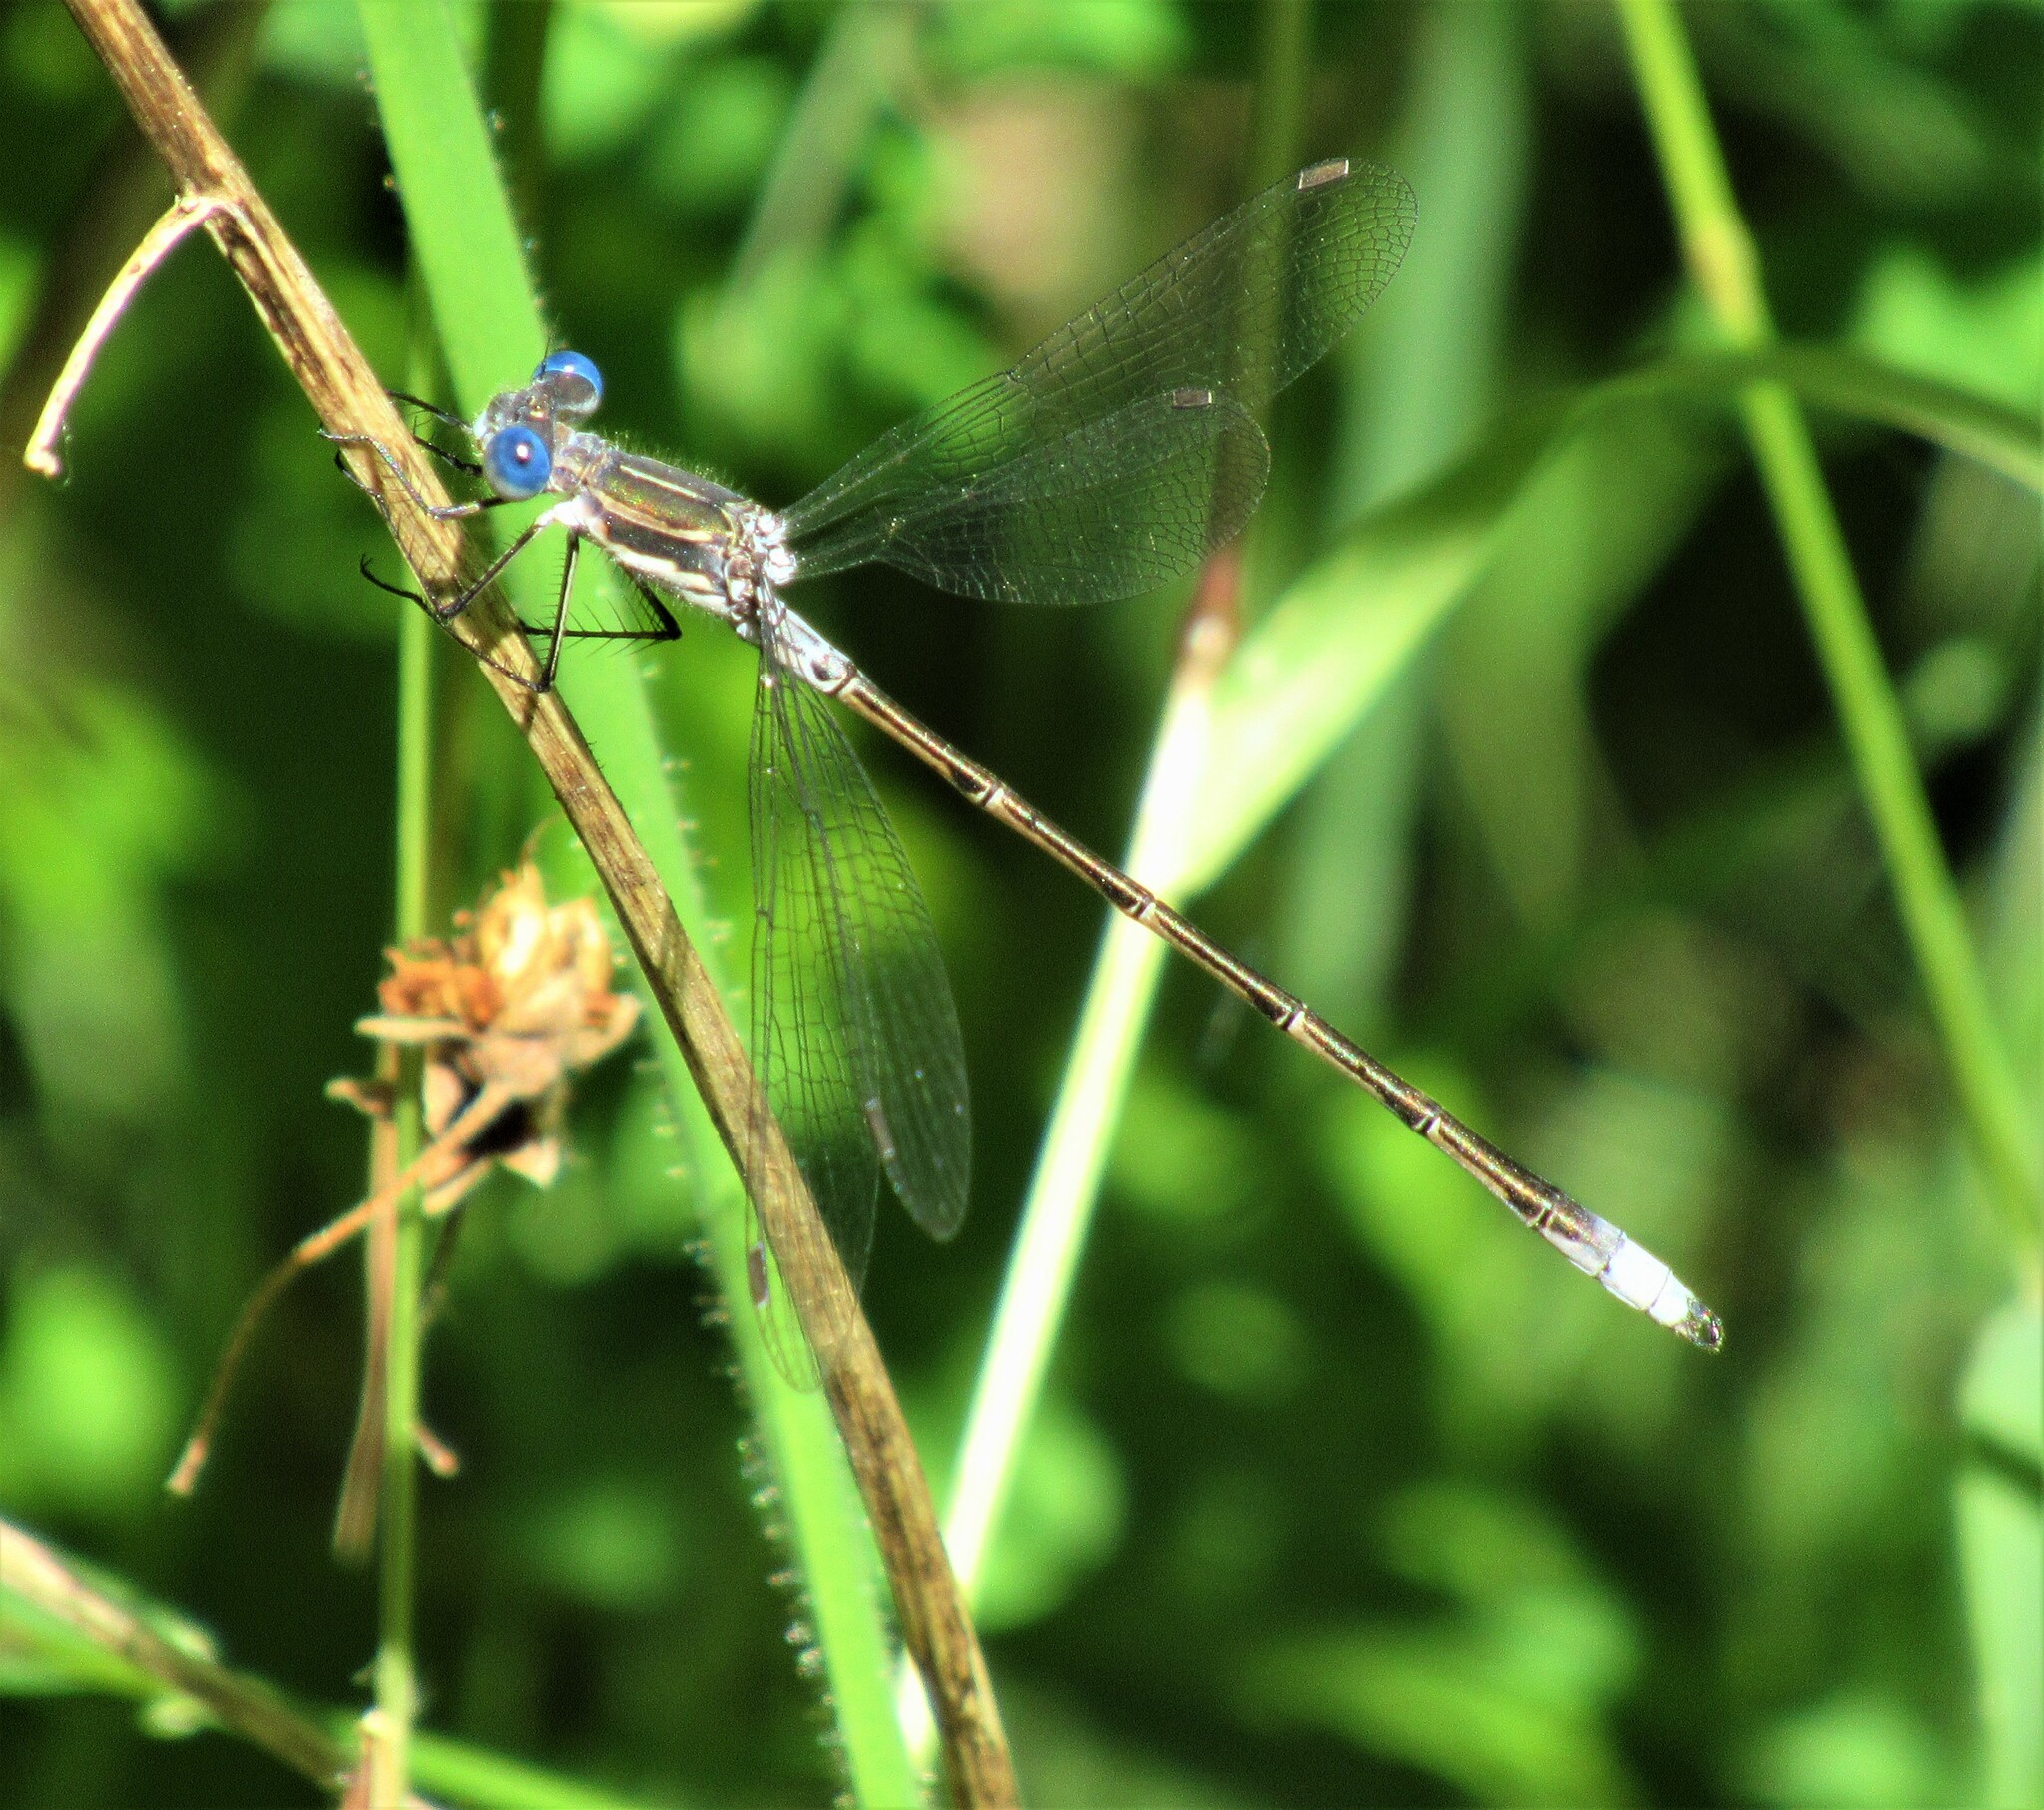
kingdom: Animalia
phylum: Arthropoda
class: Insecta
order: Odonata
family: Lestidae
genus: Lestes
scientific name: Lestes congener
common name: Spotted spreadwing
